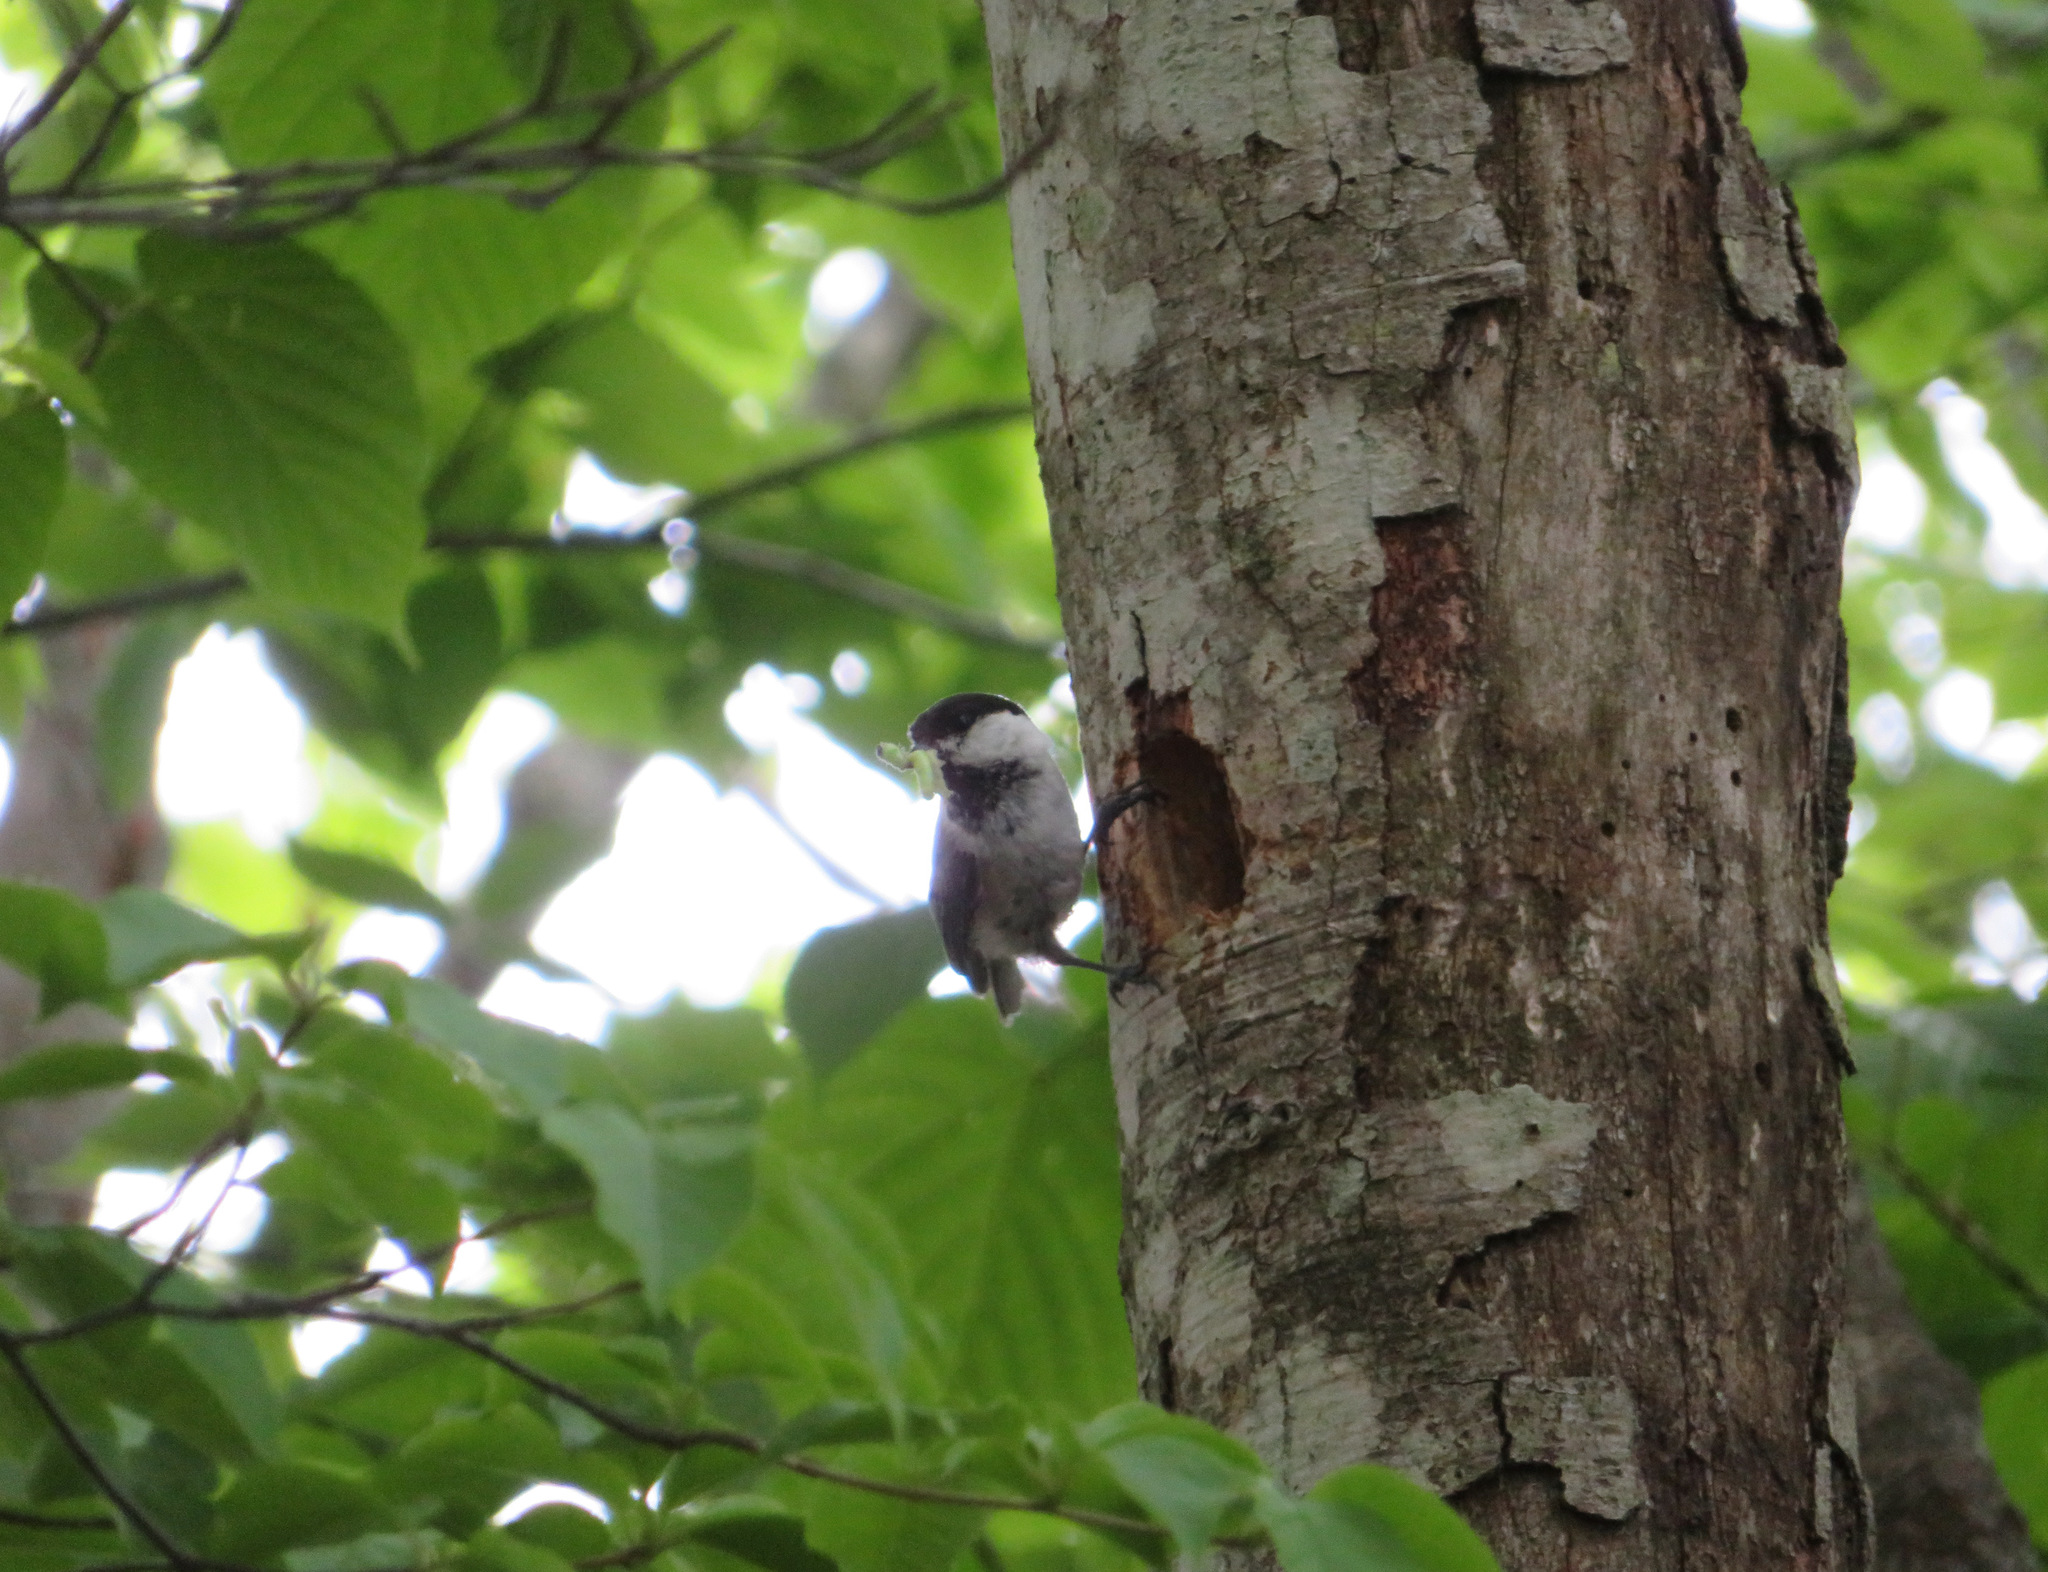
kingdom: Animalia
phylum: Chordata
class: Aves
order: Passeriformes
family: Paridae
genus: Poecile
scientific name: Poecile montanus
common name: Willow tit
